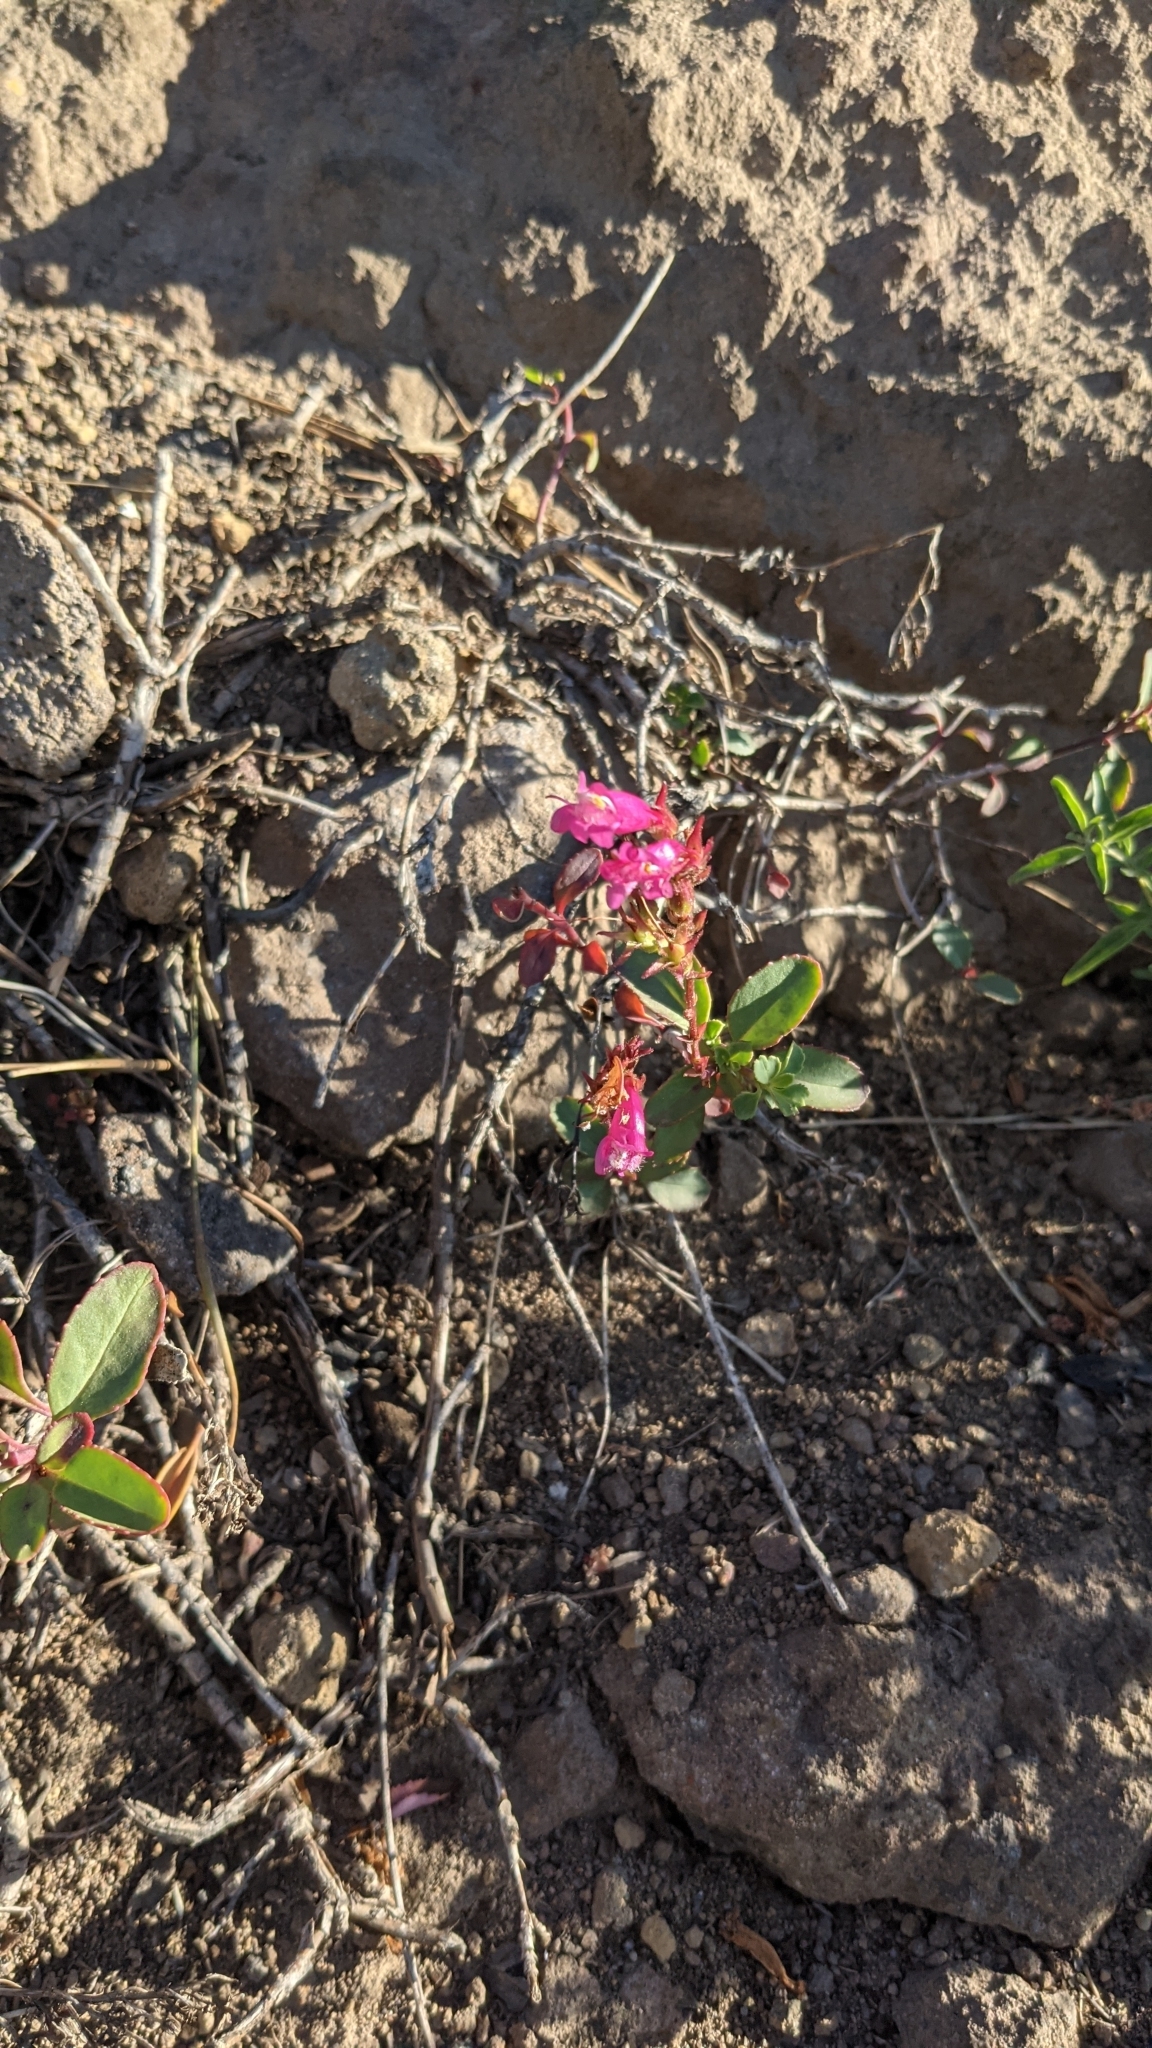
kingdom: Plantae
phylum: Tracheophyta
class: Magnoliopsida
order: Lamiales
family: Plantaginaceae
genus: Penstemon
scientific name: Penstemon newberryi
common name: Mountain-pride
